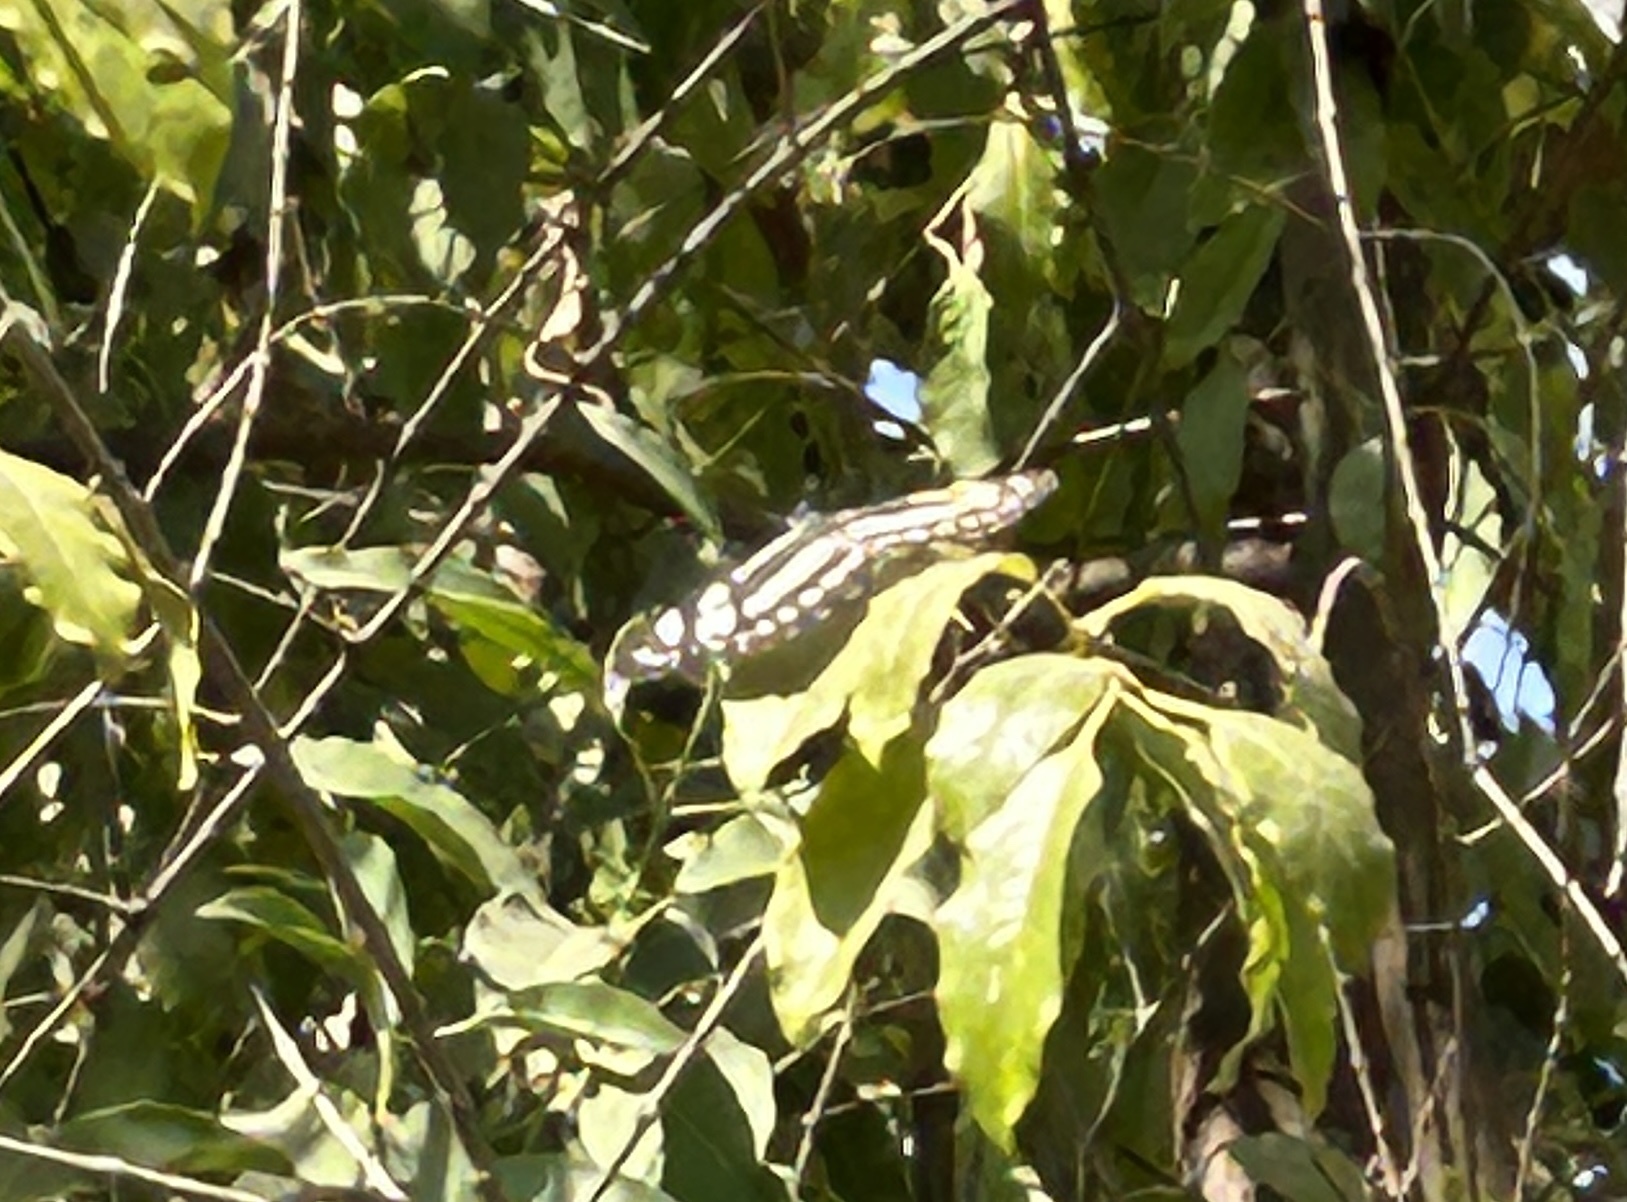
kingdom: Animalia
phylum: Arthropoda
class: Insecta
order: Lepidoptera
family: Nymphalidae
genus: Neptis
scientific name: Neptis hylas
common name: Common sailer
